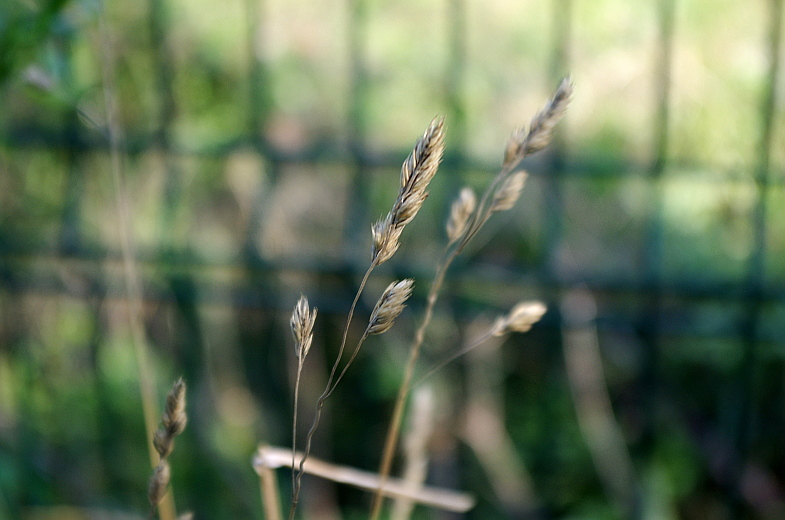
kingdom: Plantae
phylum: Tracheophyta
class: Liliopsida
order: Poales
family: Poaceae
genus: Dactylis
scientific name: Dactylis glomerata
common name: Orchardgrass
